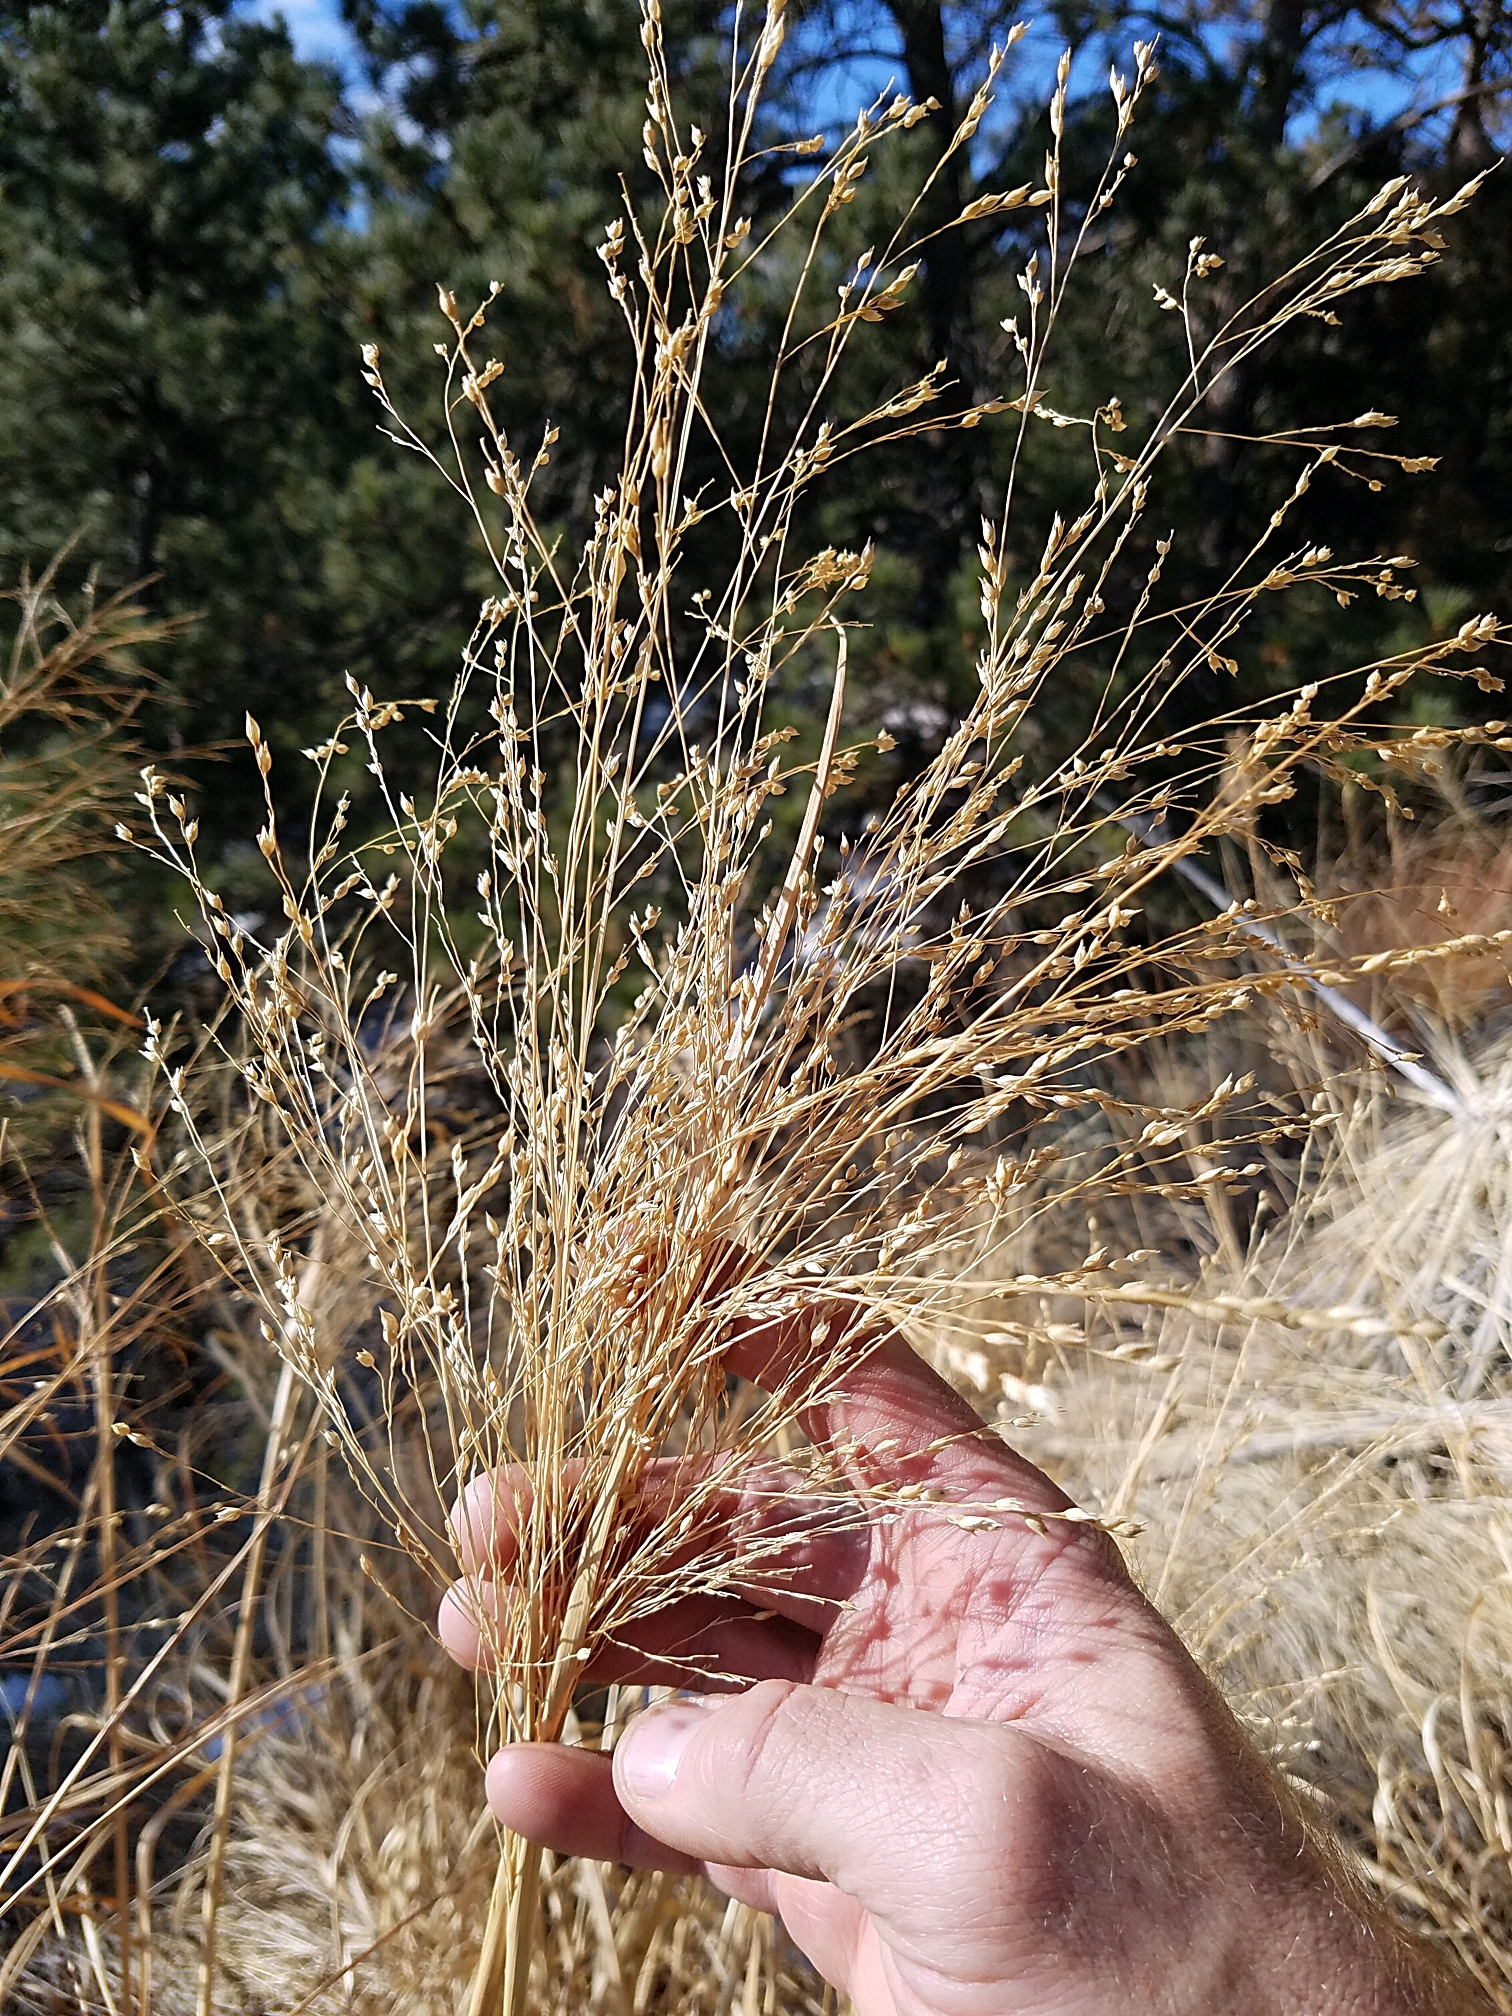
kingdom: Plantae
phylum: Tracheophyta
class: Liliopsida
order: Poales
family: Poaceae
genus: Panicum
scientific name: Panicum virgatum
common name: Switchgrass
